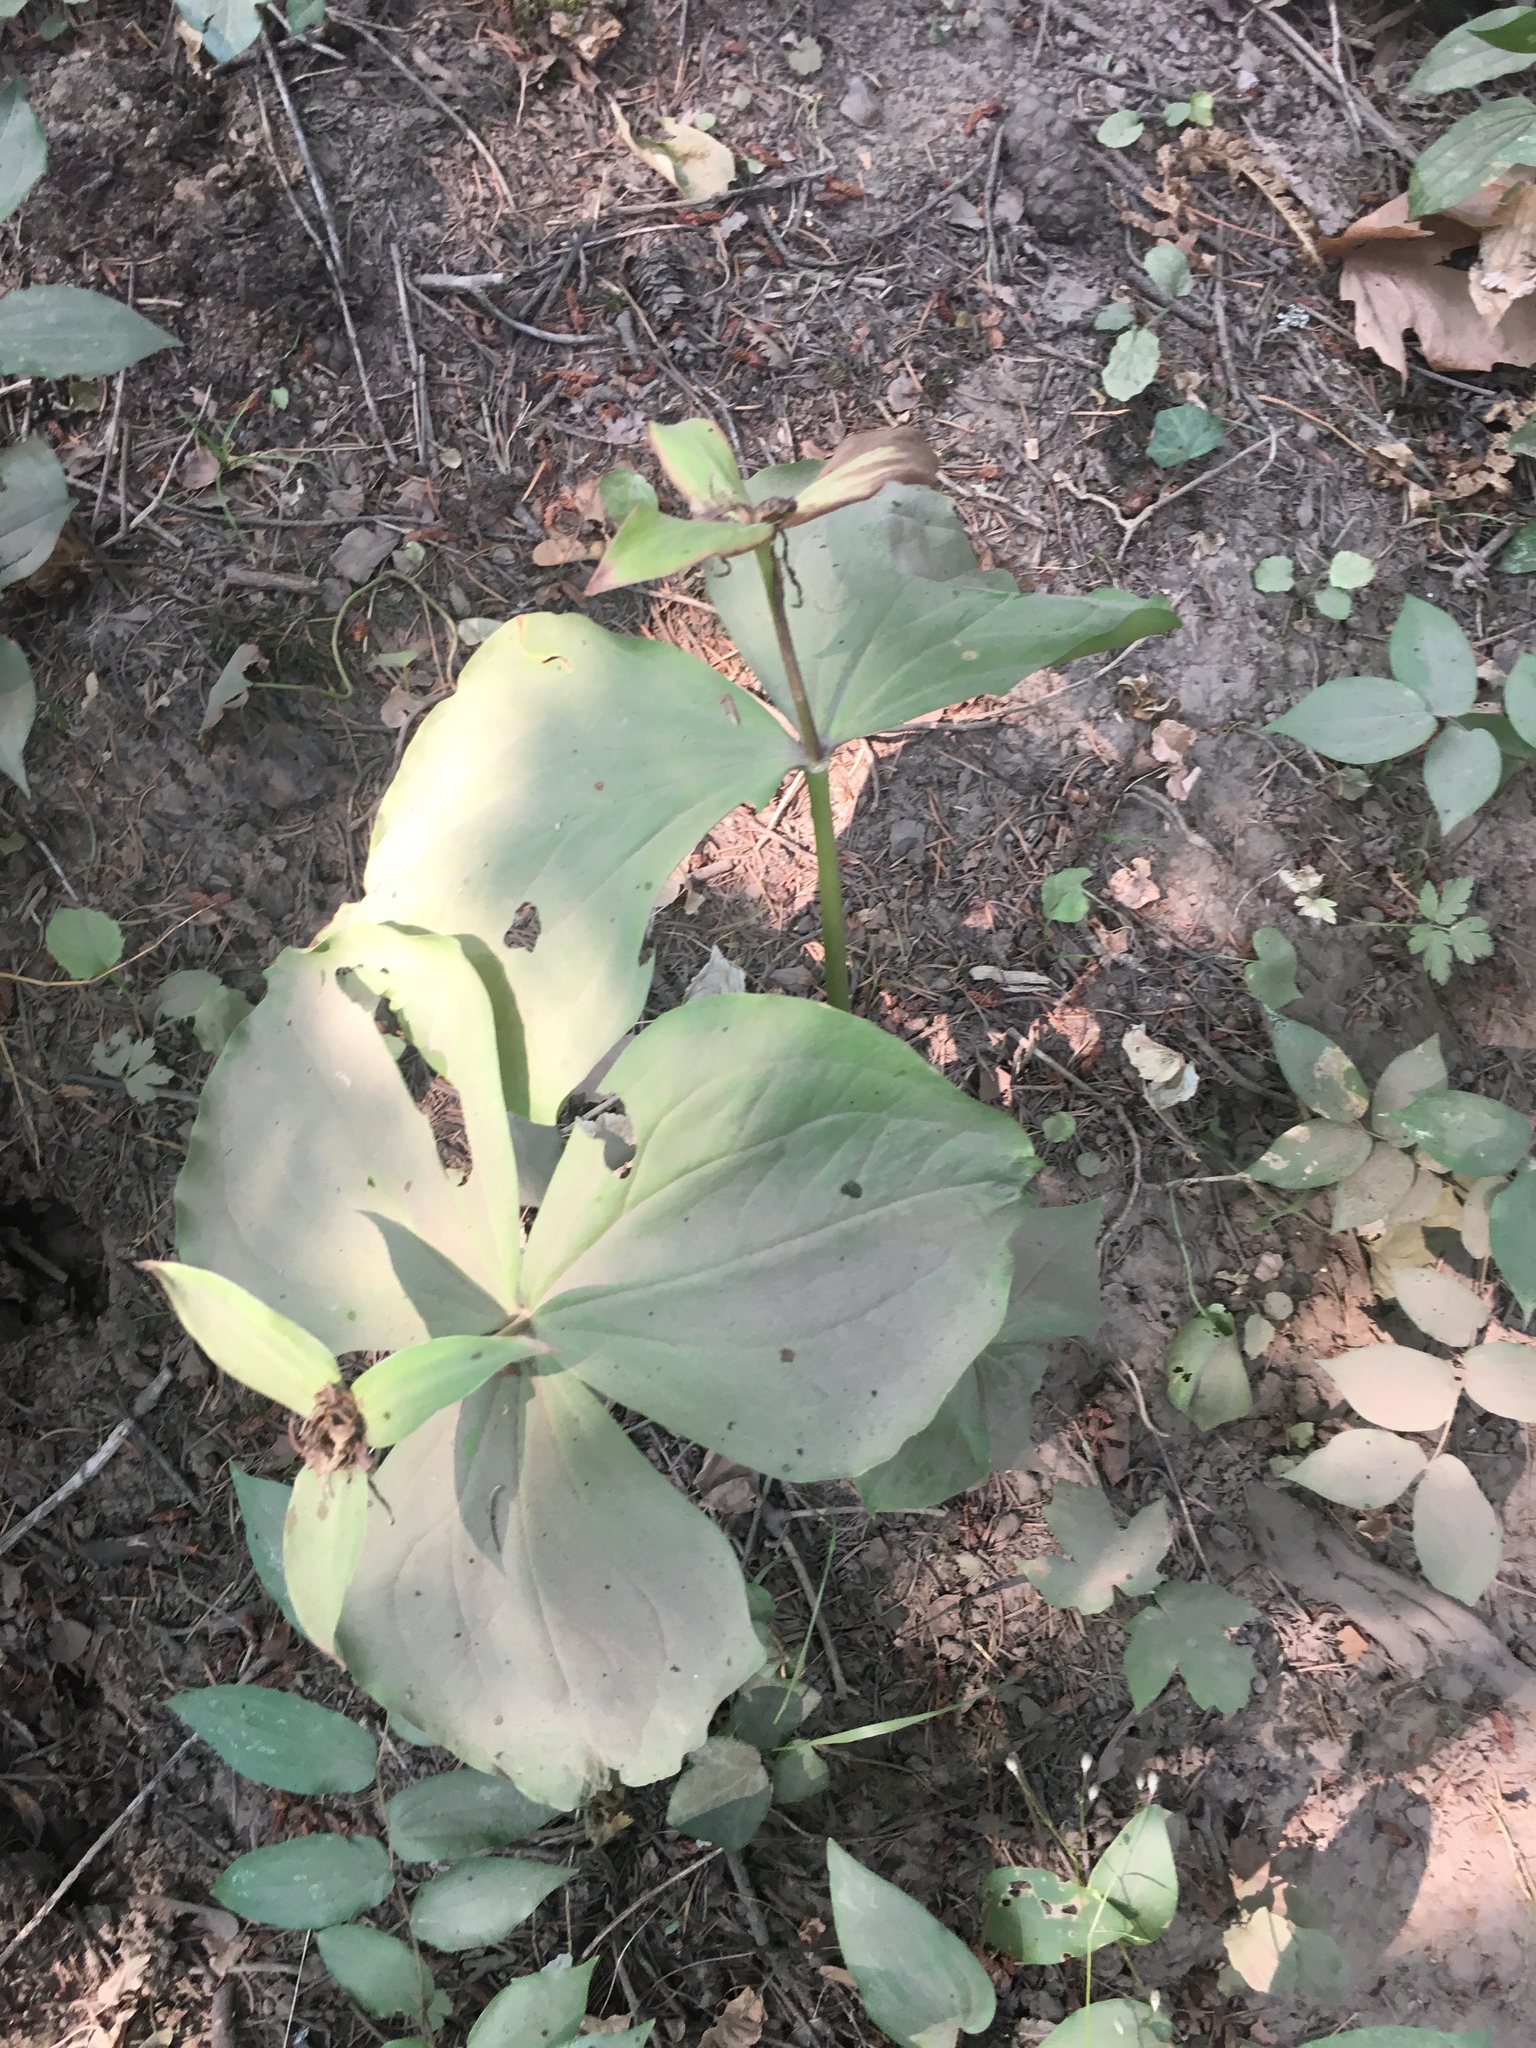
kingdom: Plantae
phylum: Tracheophyta
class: Liliopsida
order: Liliales
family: Melanthiaceae
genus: Trillium
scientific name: Trillium ovatum
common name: Pacific trillium
